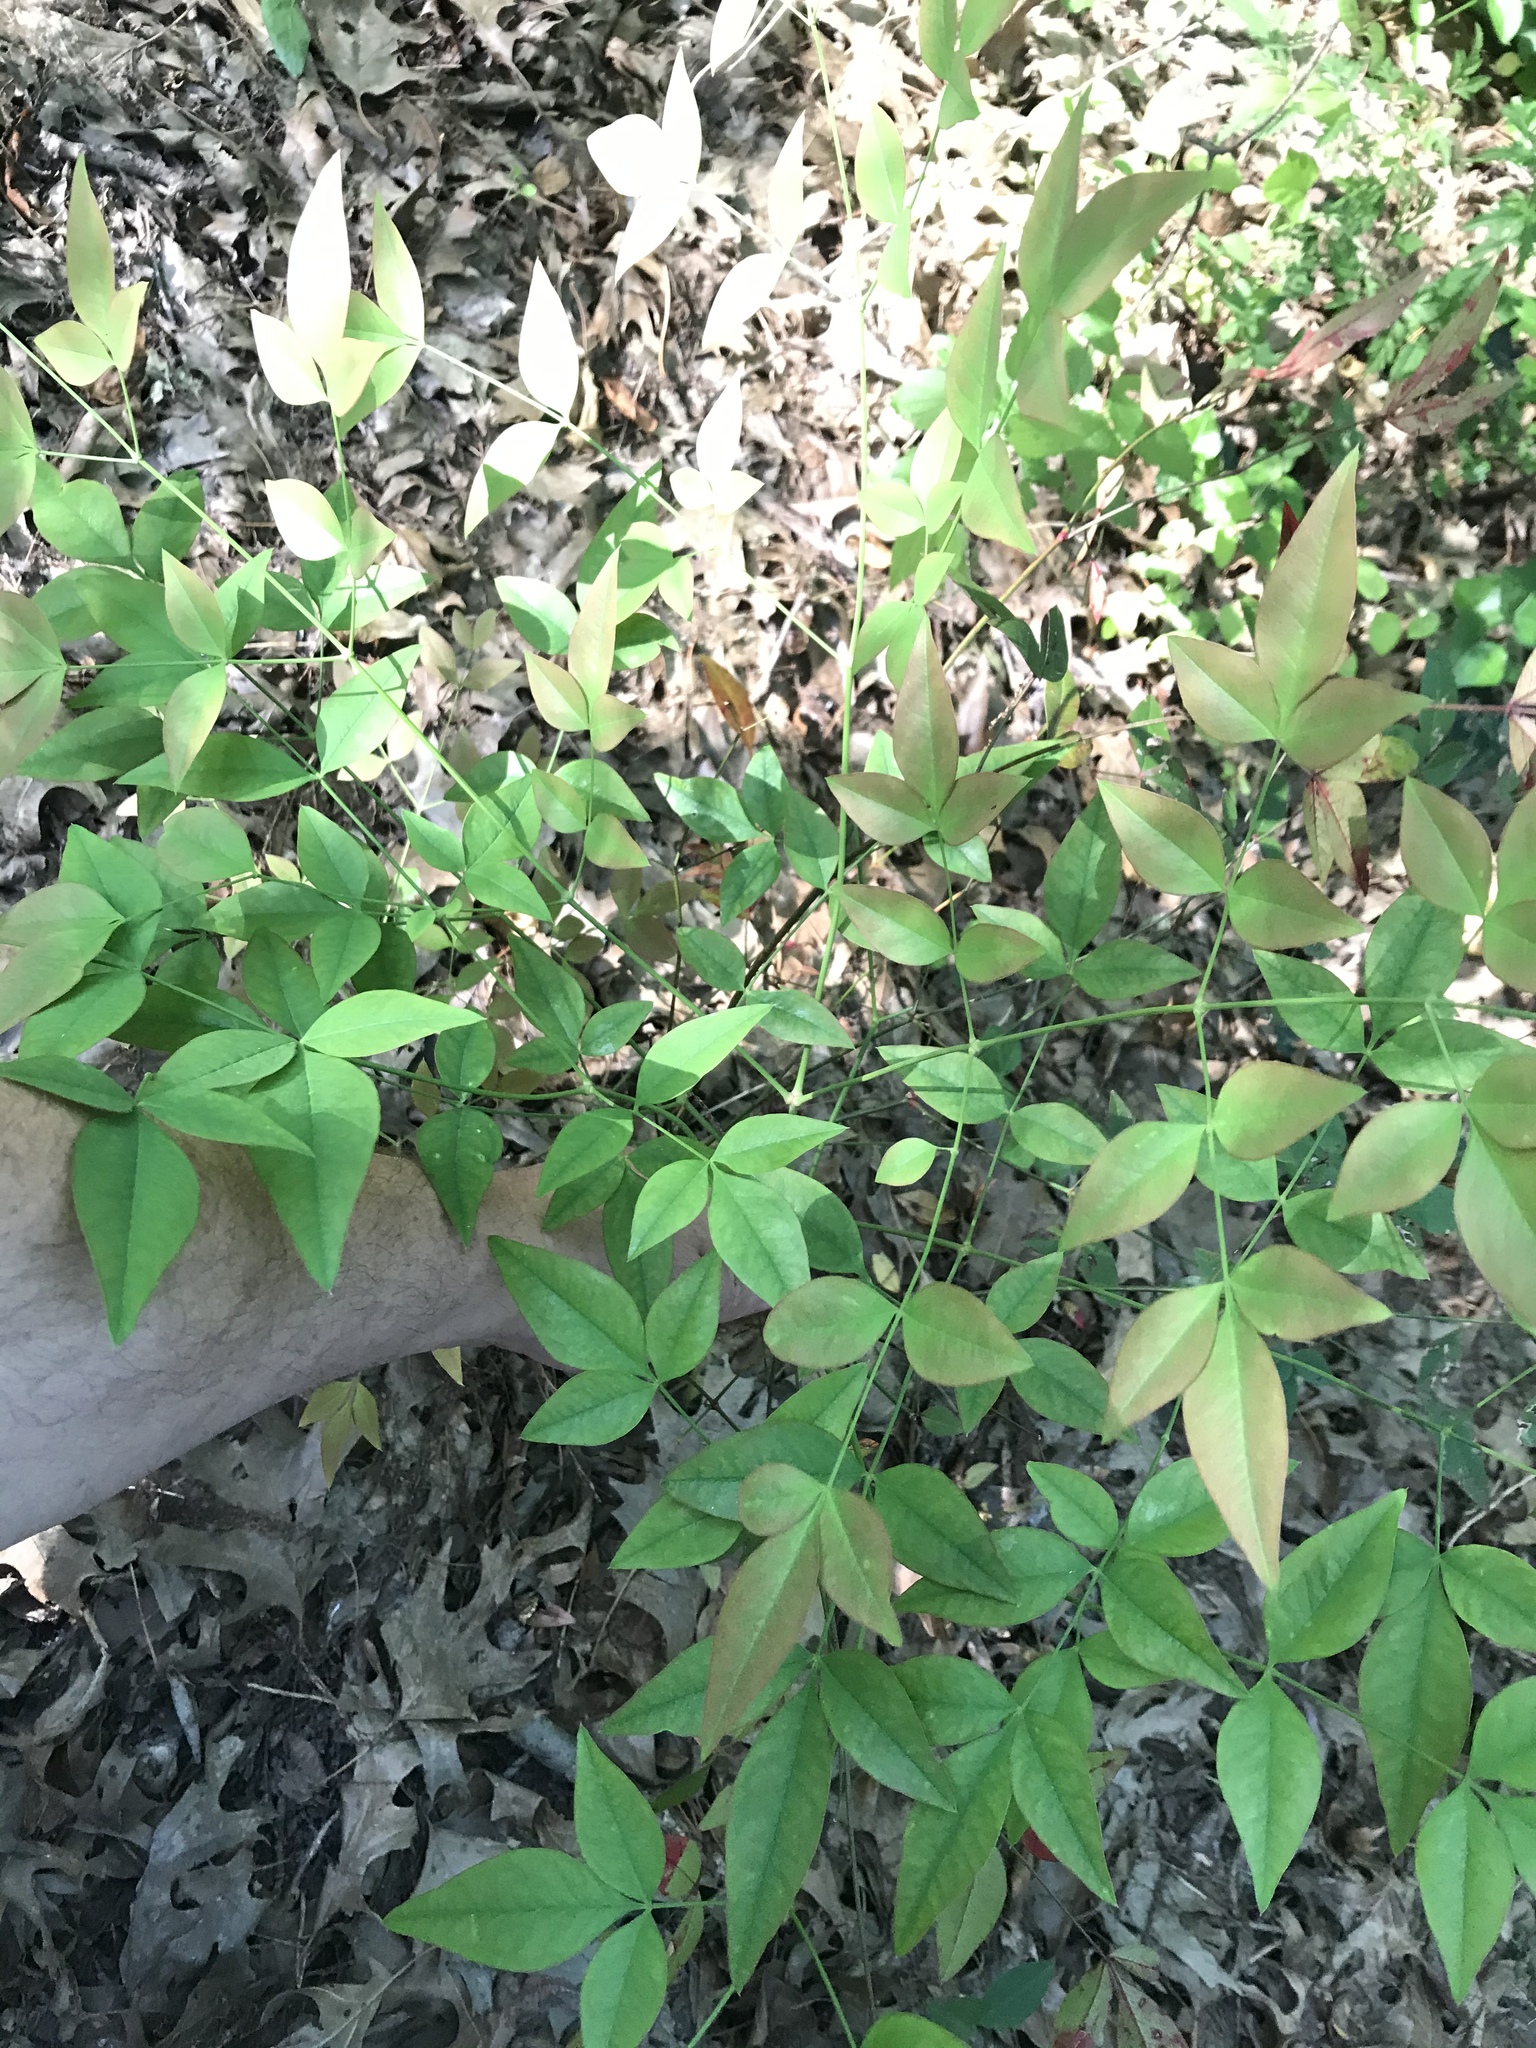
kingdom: Plantae
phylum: Tracheophyta
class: Magnoliopsida
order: Ranunculales
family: Berberidaceae
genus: Nandina
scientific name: Nandina domestica
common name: Sacred bamboo
